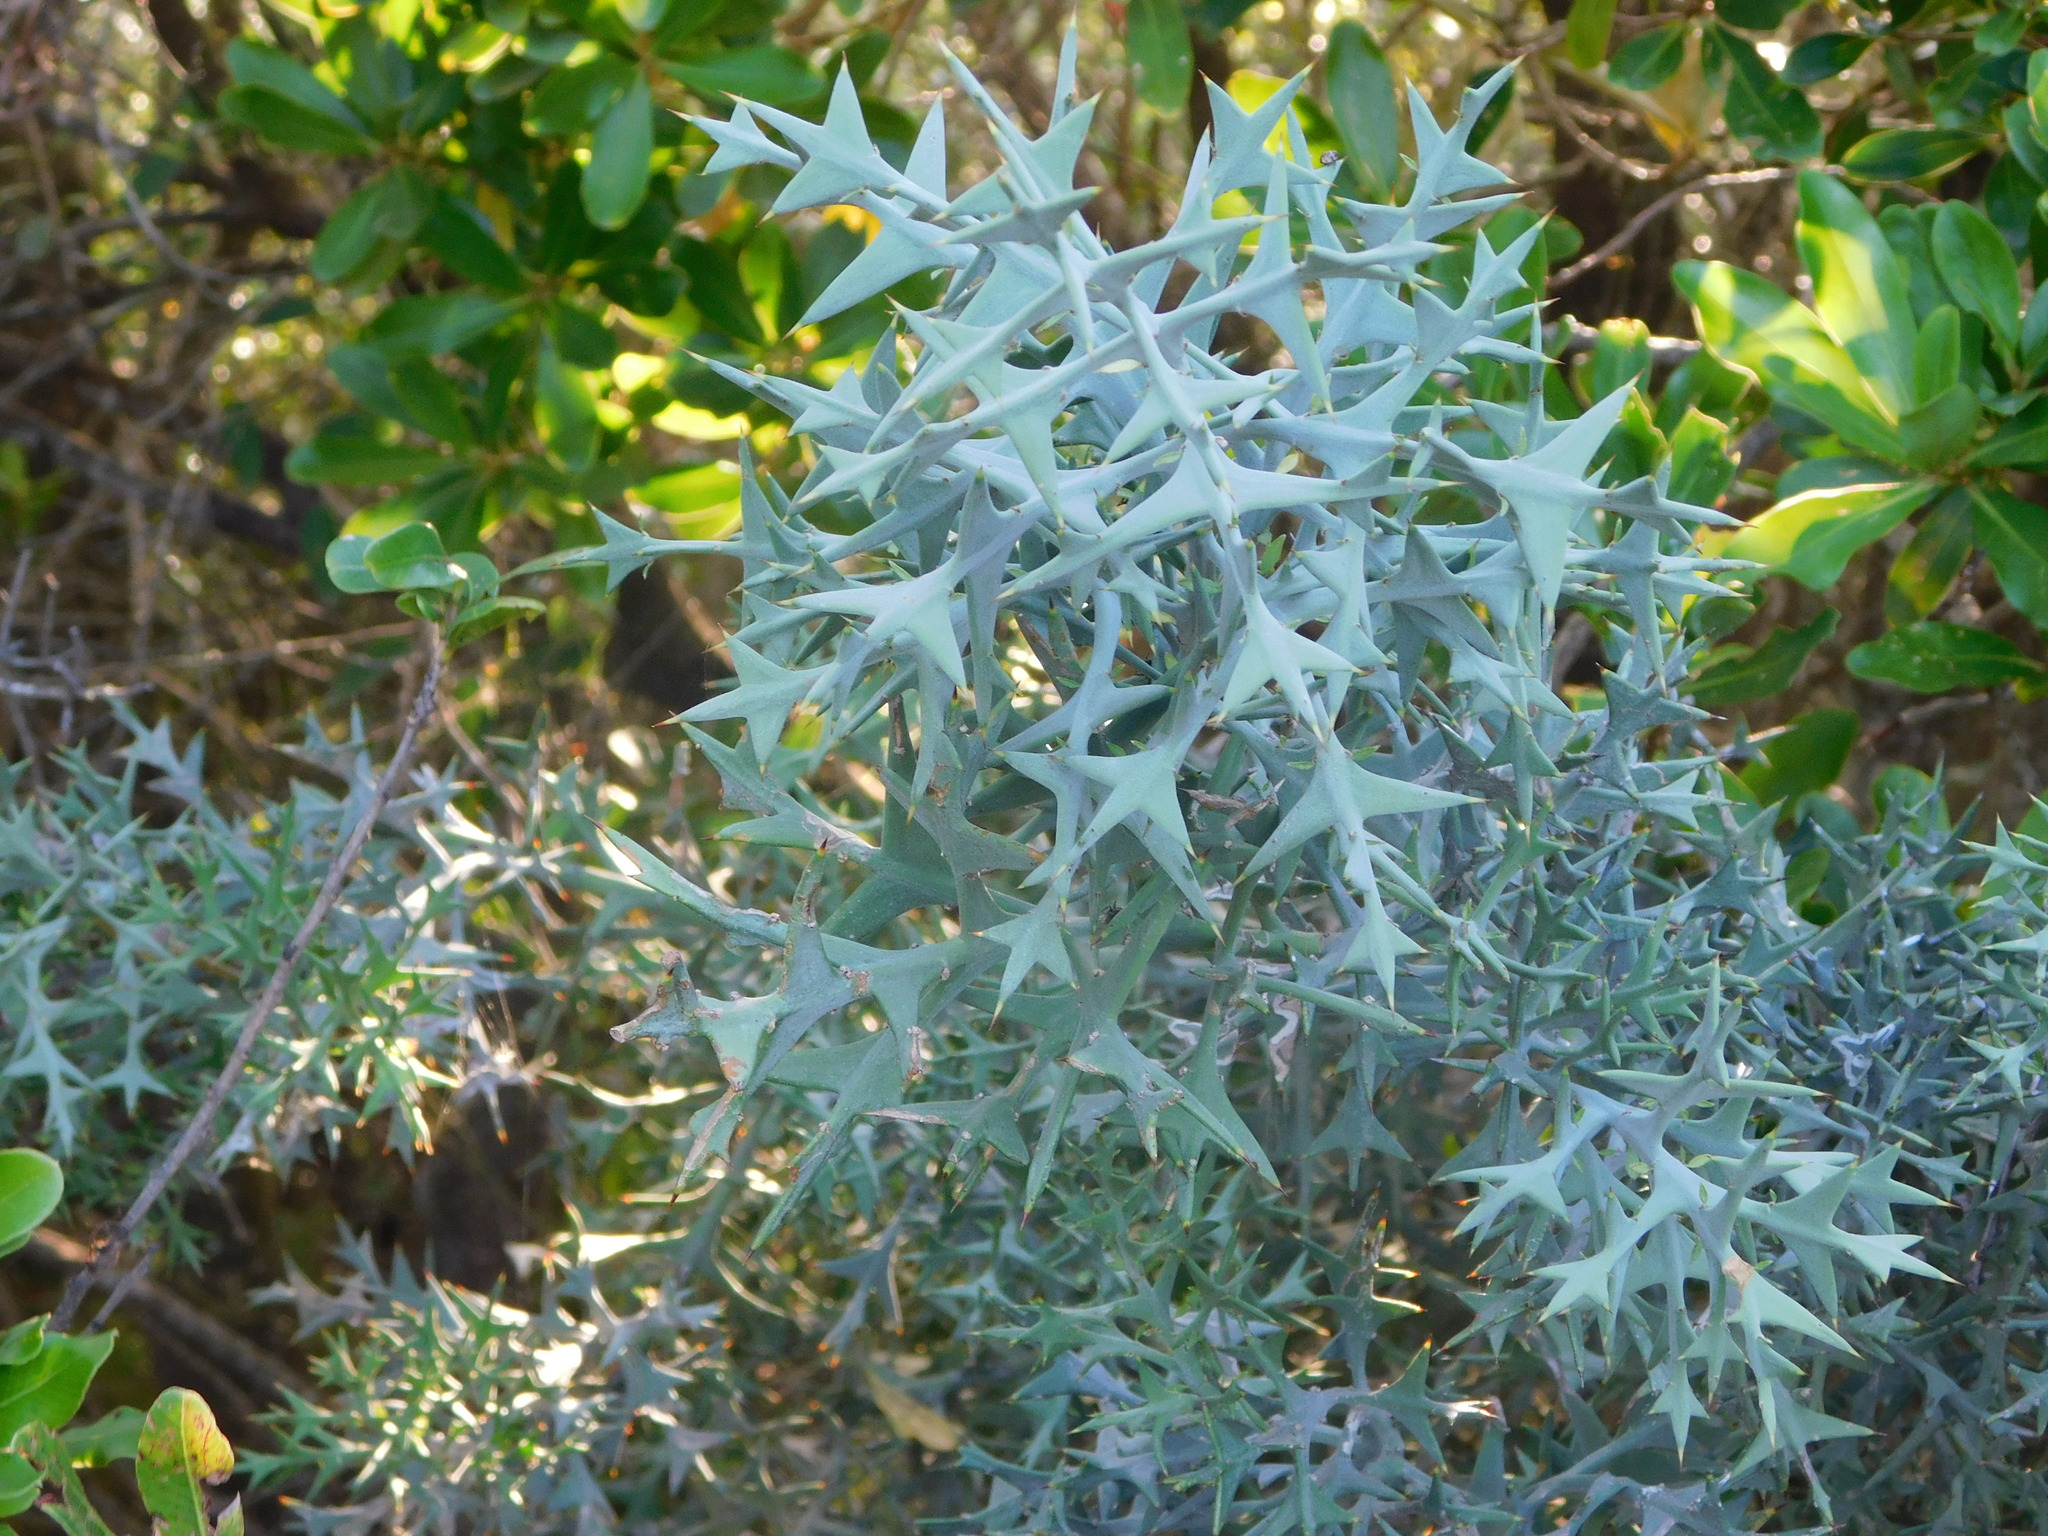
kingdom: Plantae
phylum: Tracheophyta
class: Magnoliopsida
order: Rosales
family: Rhamnaceae
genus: Colletia
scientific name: Colletia paradoxa
